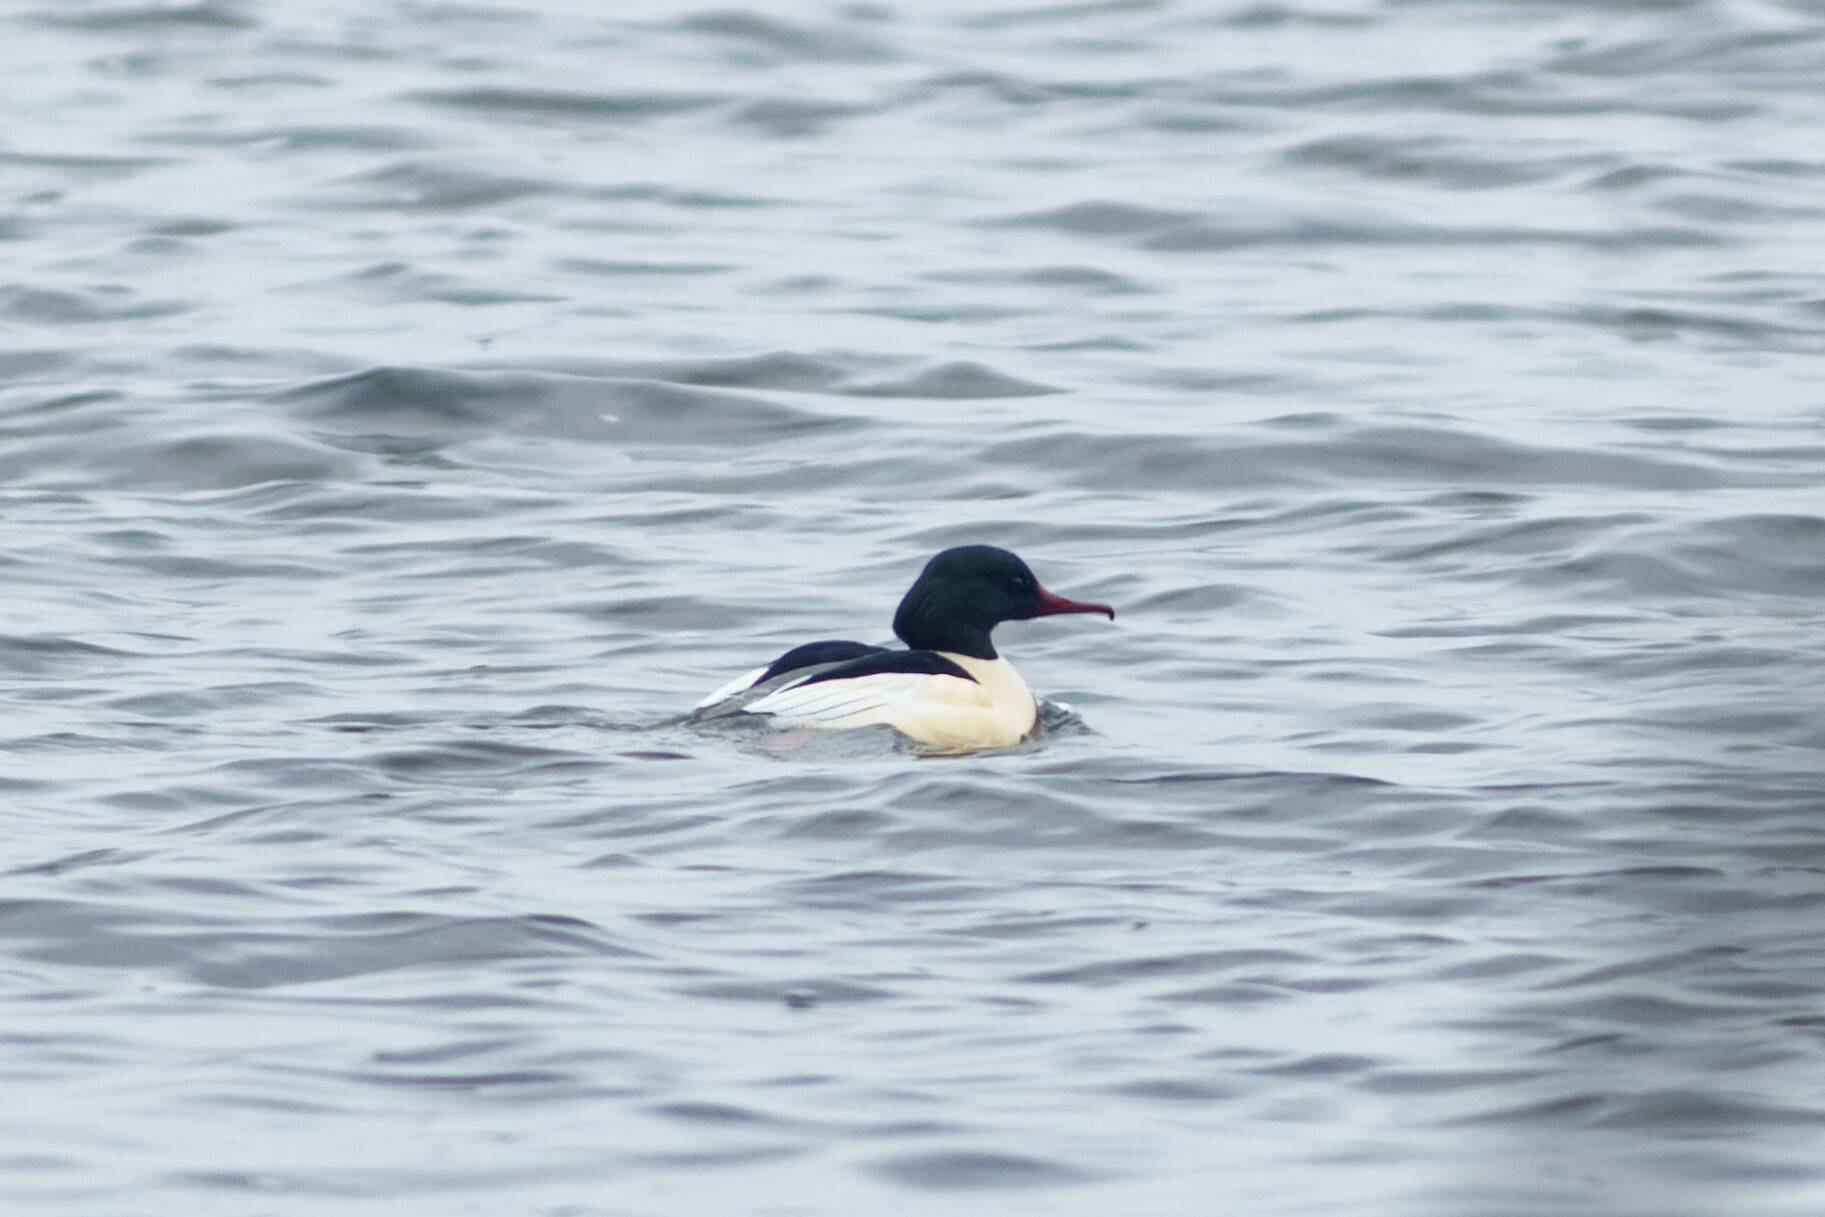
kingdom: Animalia
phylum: Chordata
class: Aves
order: Anseriformes
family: Anatidae
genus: Mergus
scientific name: Mergus merganser
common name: Common merganser
